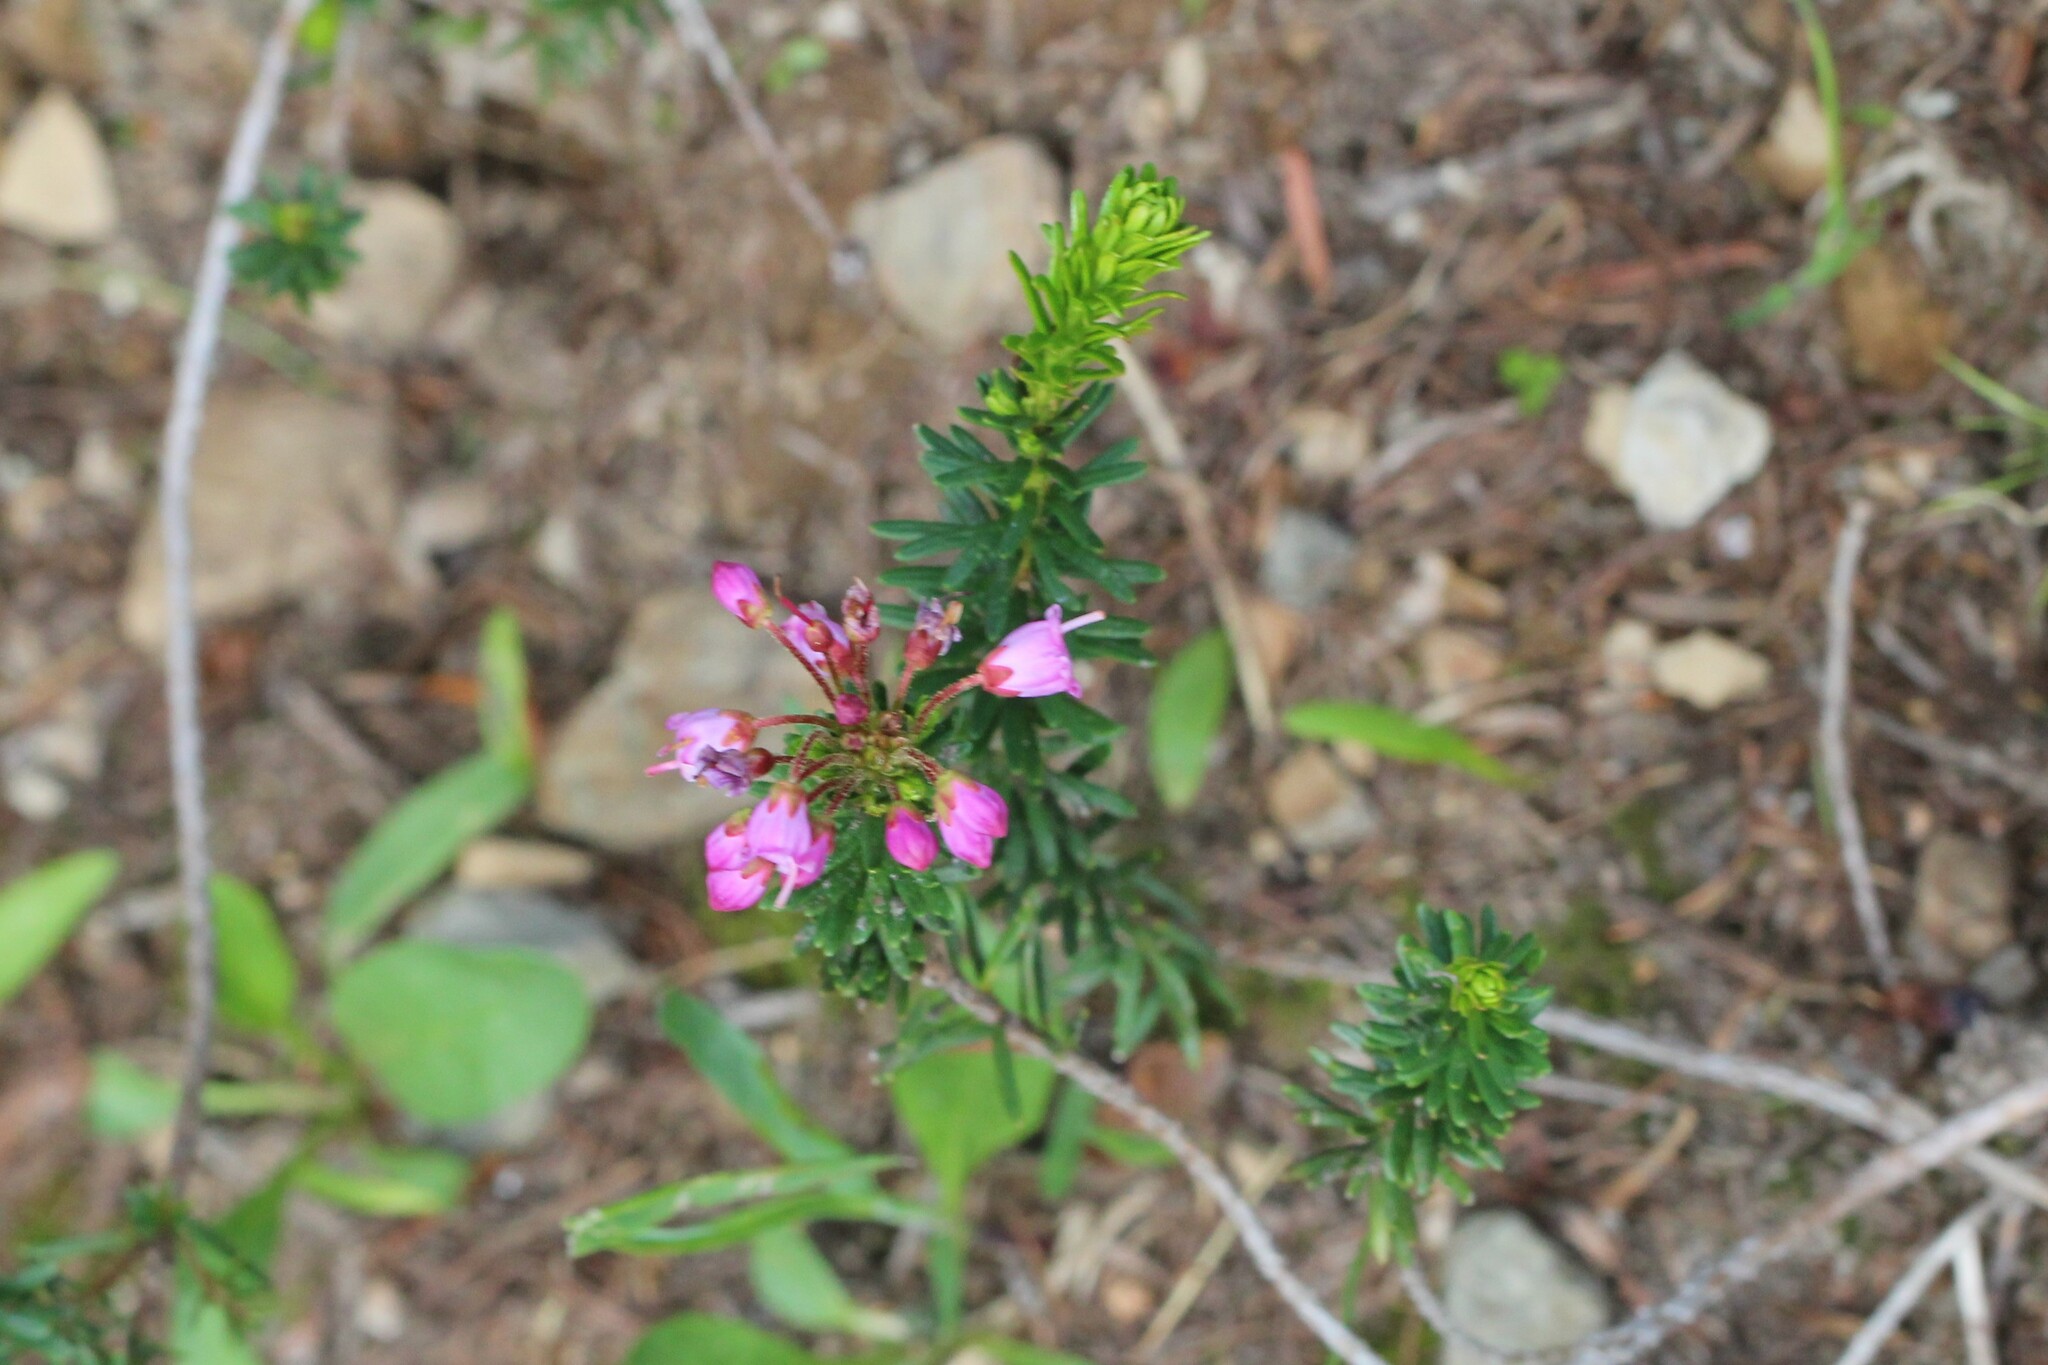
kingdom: Plantae
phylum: Tracheophyta
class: Magnoliopsida
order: Ericales
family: Ericaceae
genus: Phyllodoce
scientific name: Phyllodoce empetriformis
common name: Pink mountain heather
